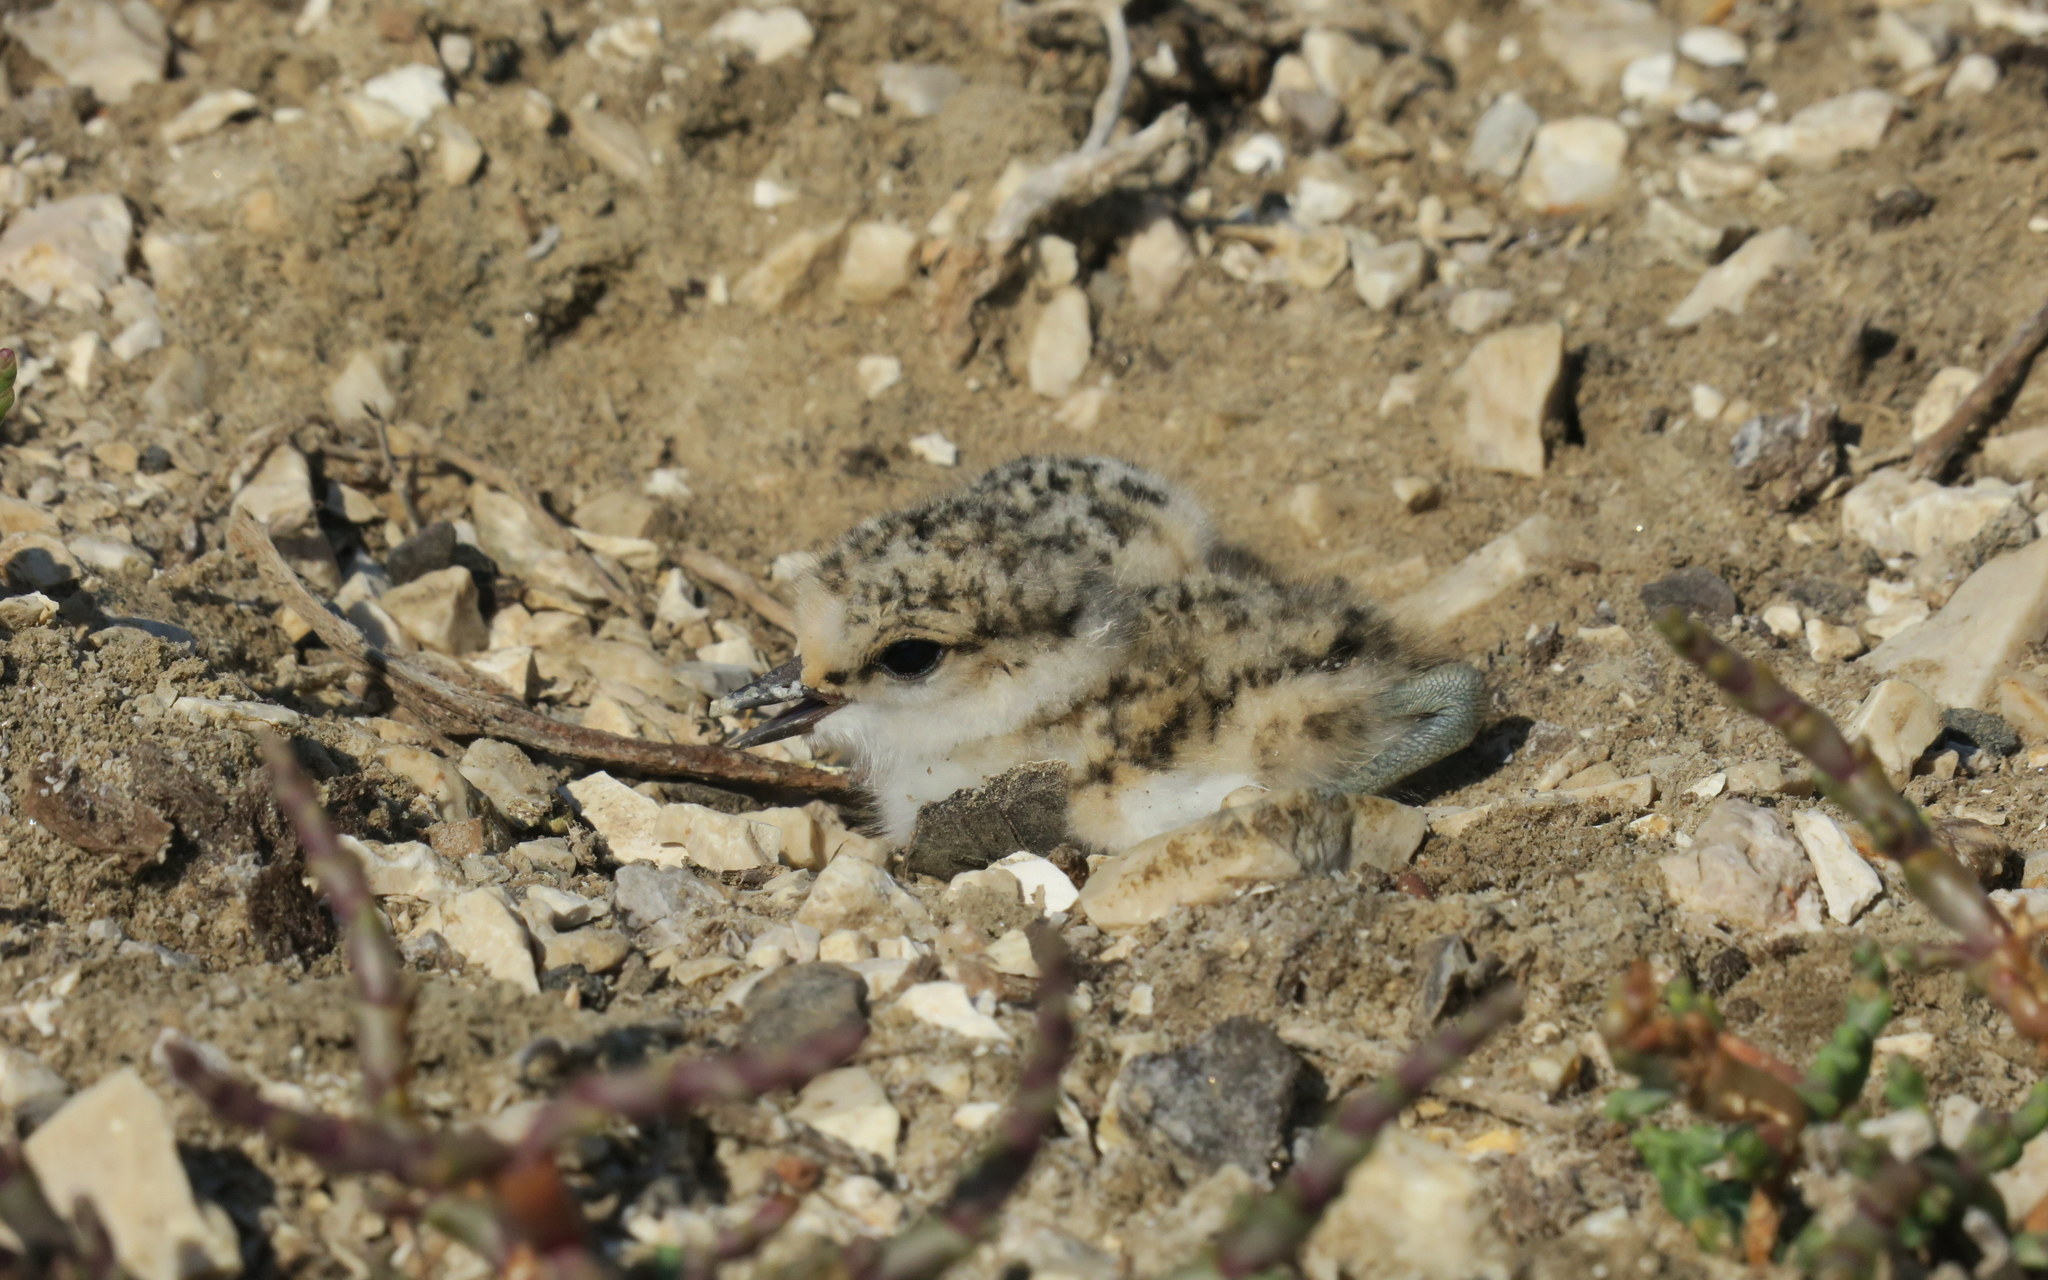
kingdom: Animalia
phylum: Chordata
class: Aves
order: Charadriiformes
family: Charadriidae
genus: Charadrius
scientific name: Charadrius alexandrinus
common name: Kentish plover
